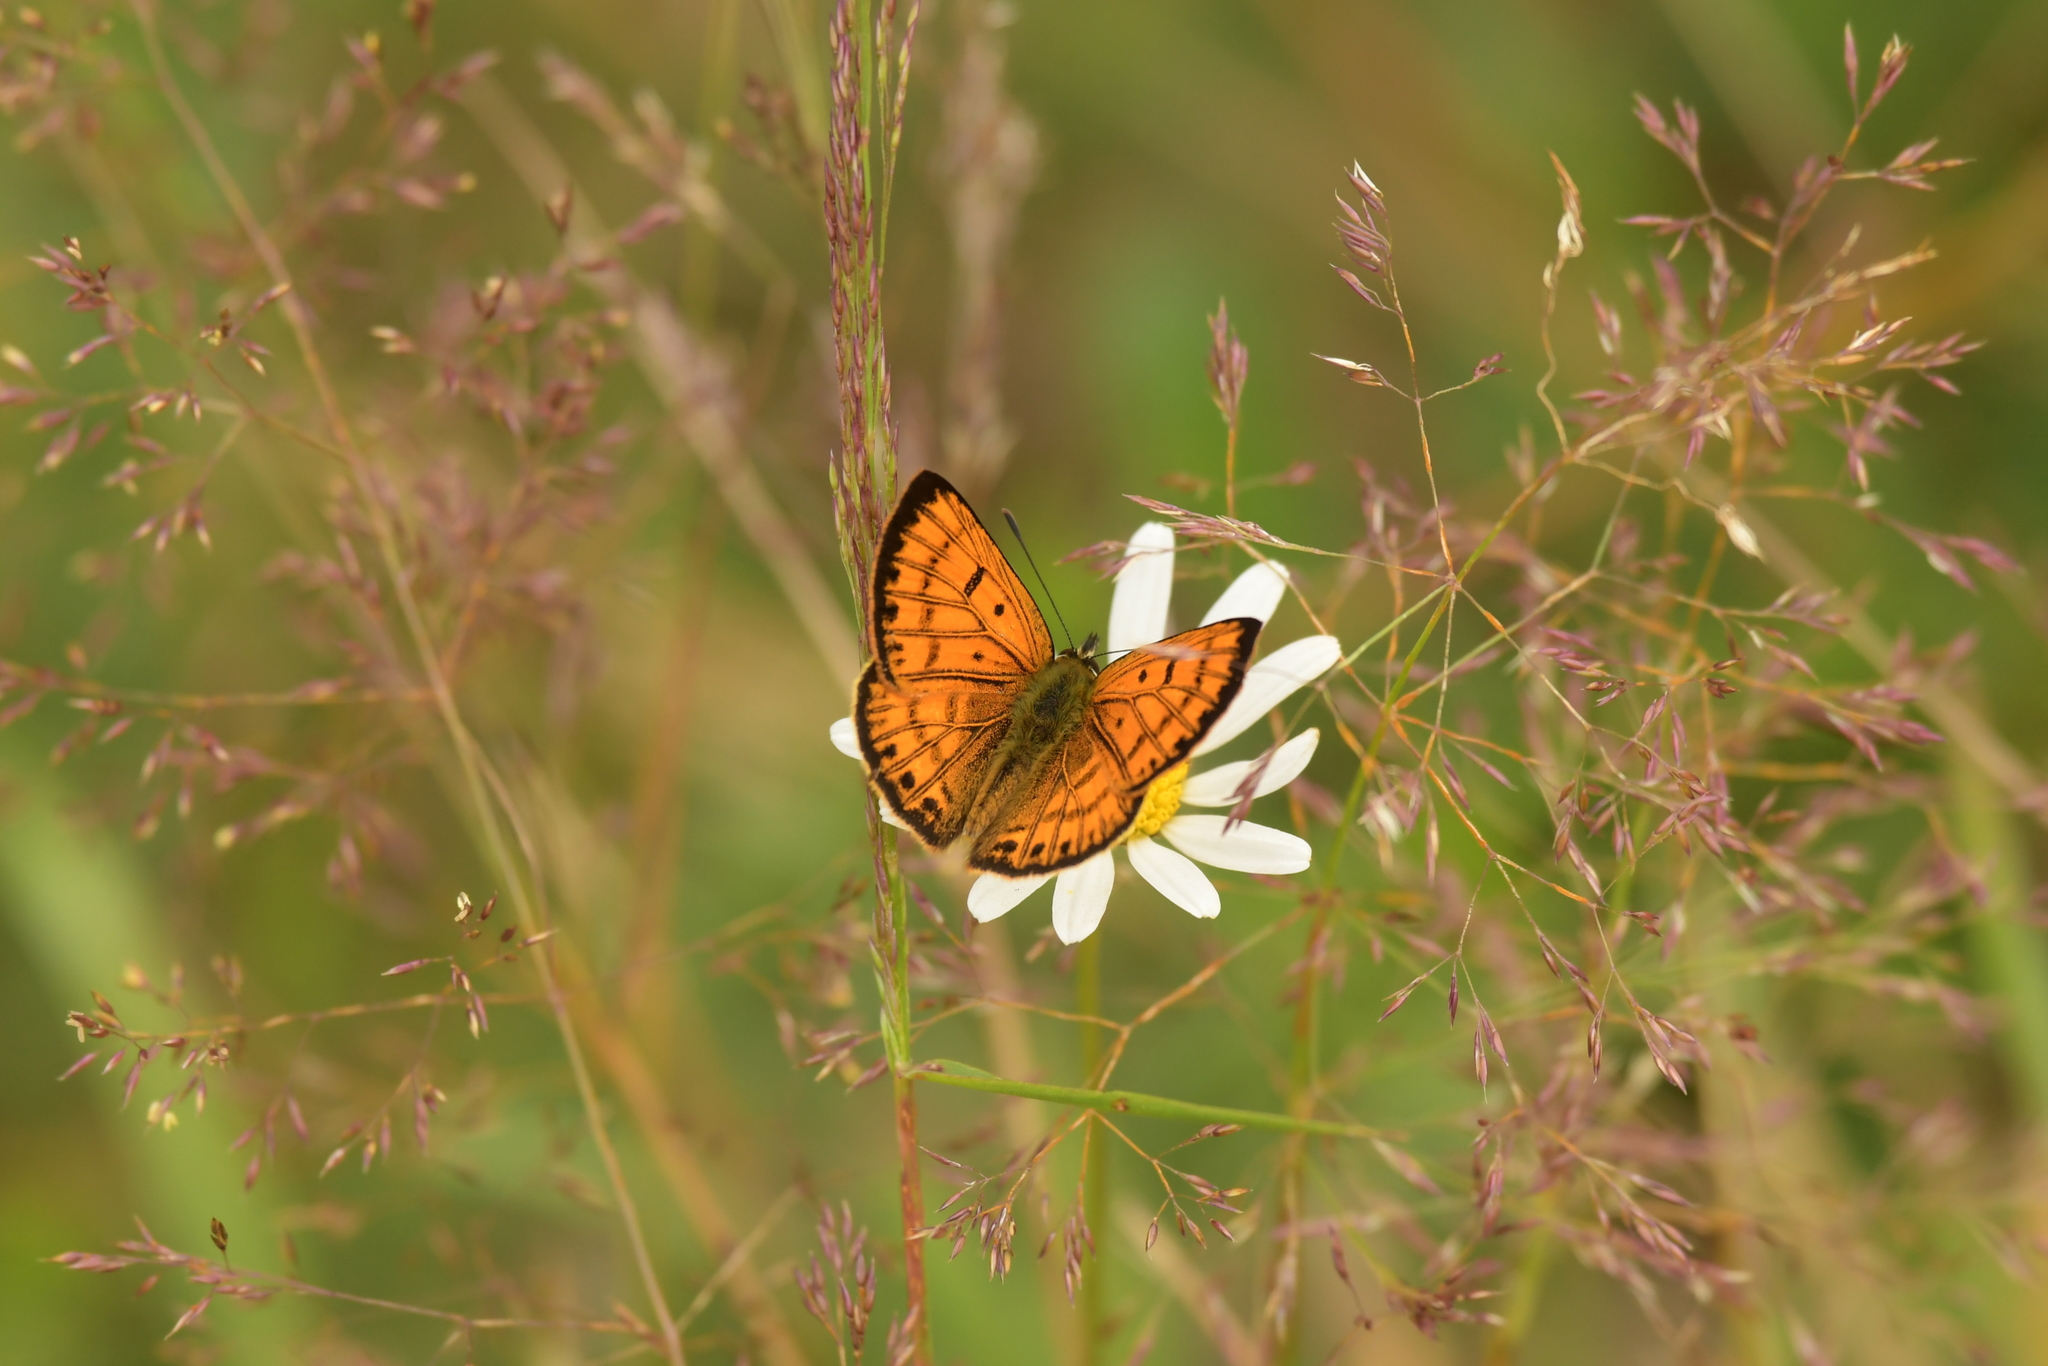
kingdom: Animalia
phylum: Arthropoda
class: Insecta
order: Lepidoptera
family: Lycaenidae
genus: Lycaena
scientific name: Lycaena salustius
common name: North island coastal copper
